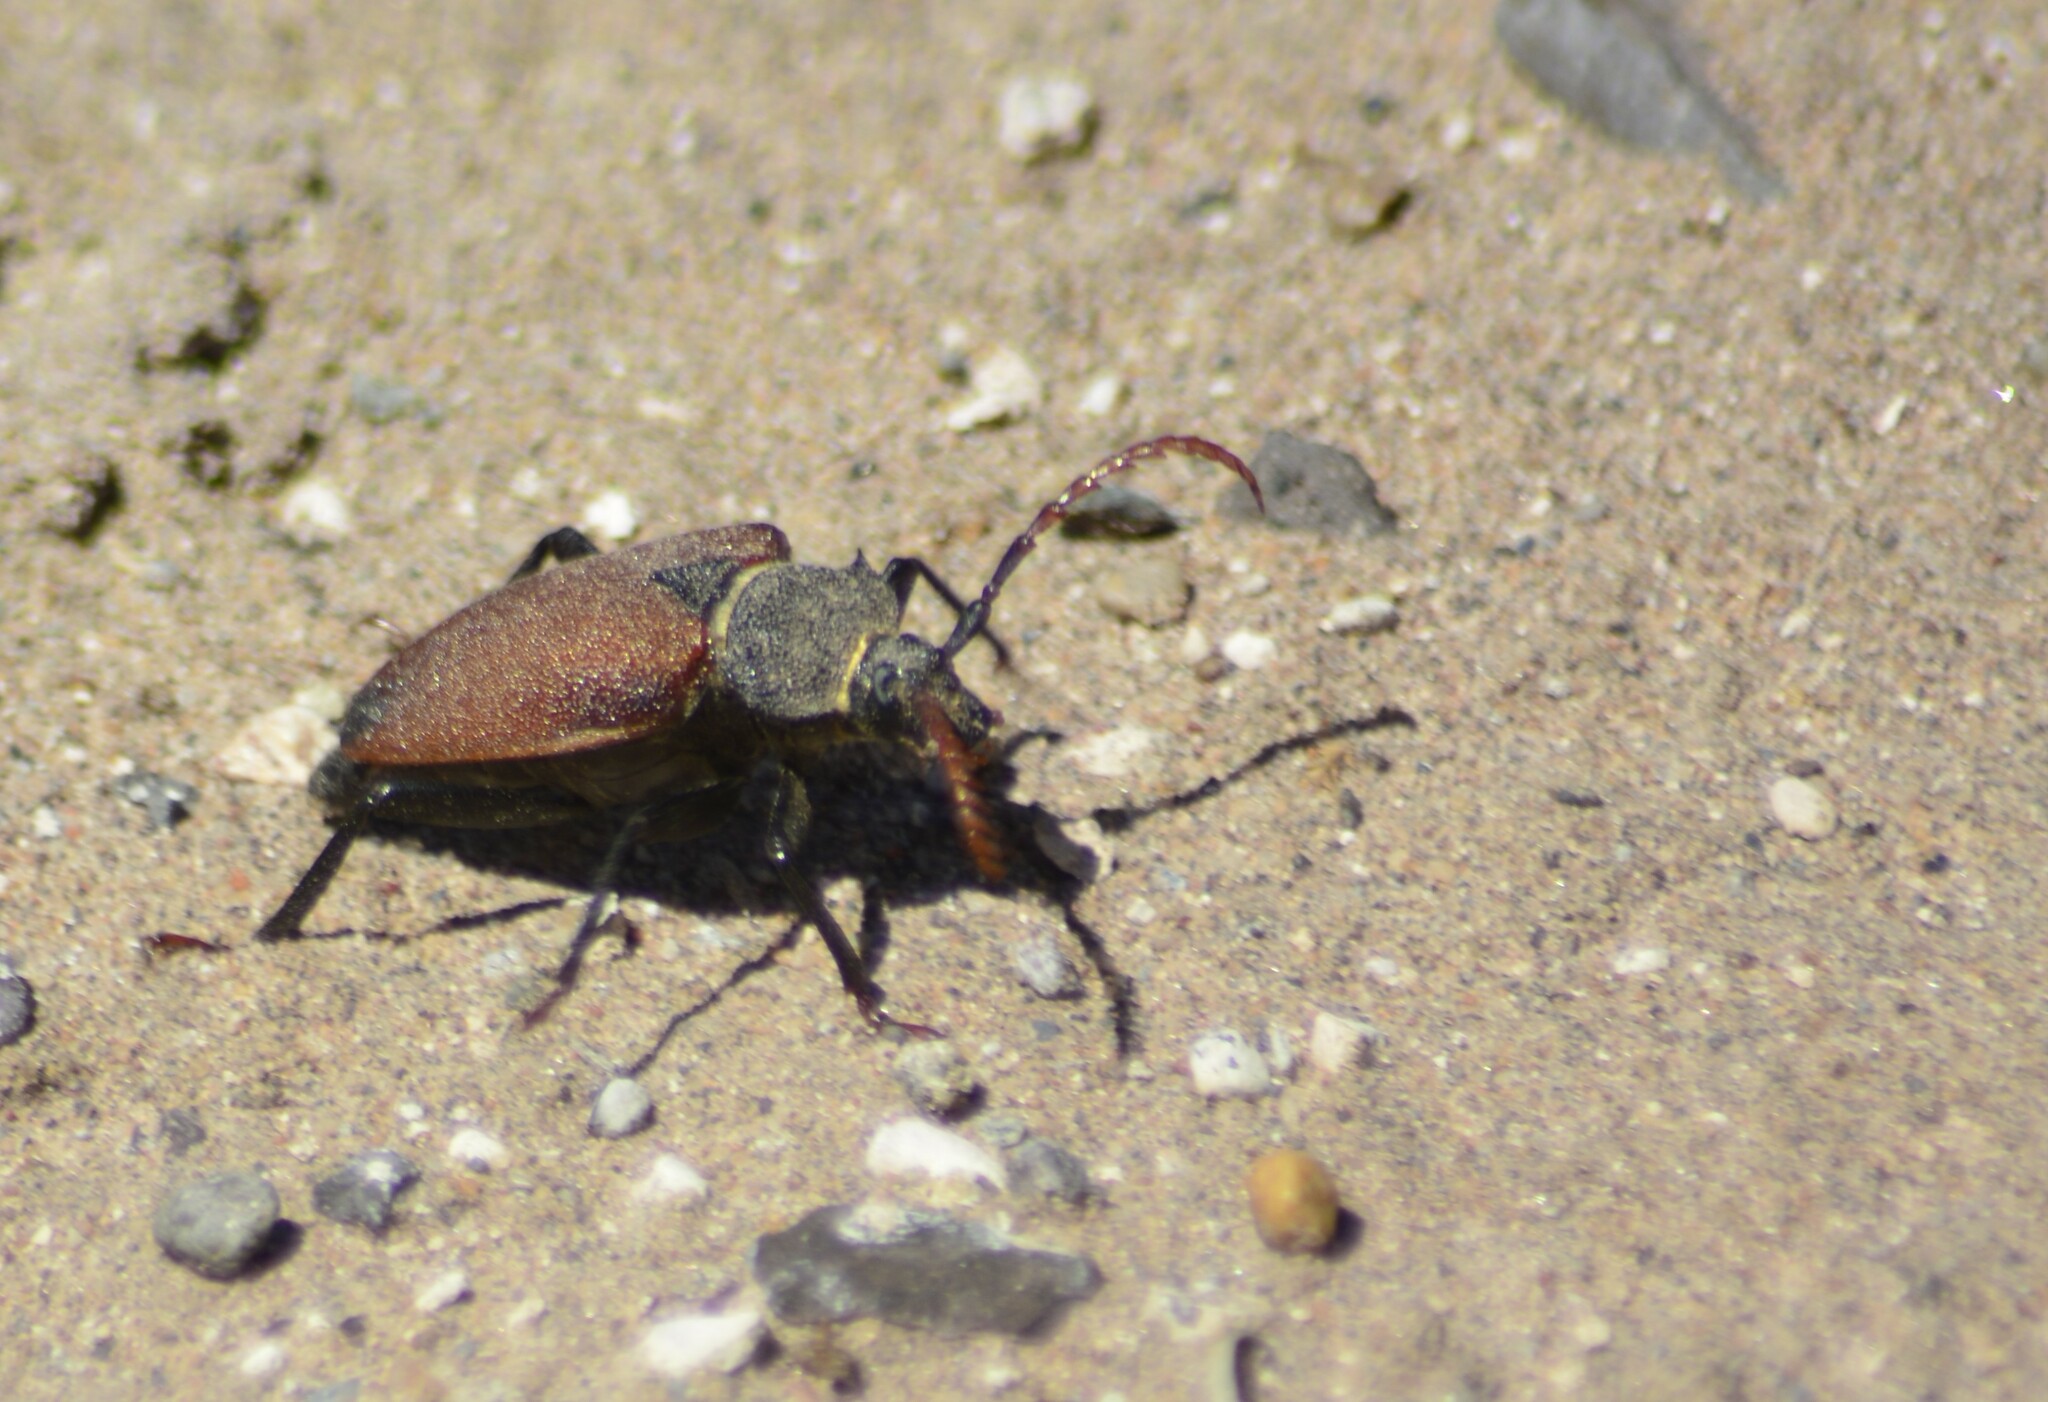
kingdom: Animalia
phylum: Arthropoda
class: Insecta
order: Coleoptera
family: Cerambycidae
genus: Calocomus
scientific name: Calocomus morosus
